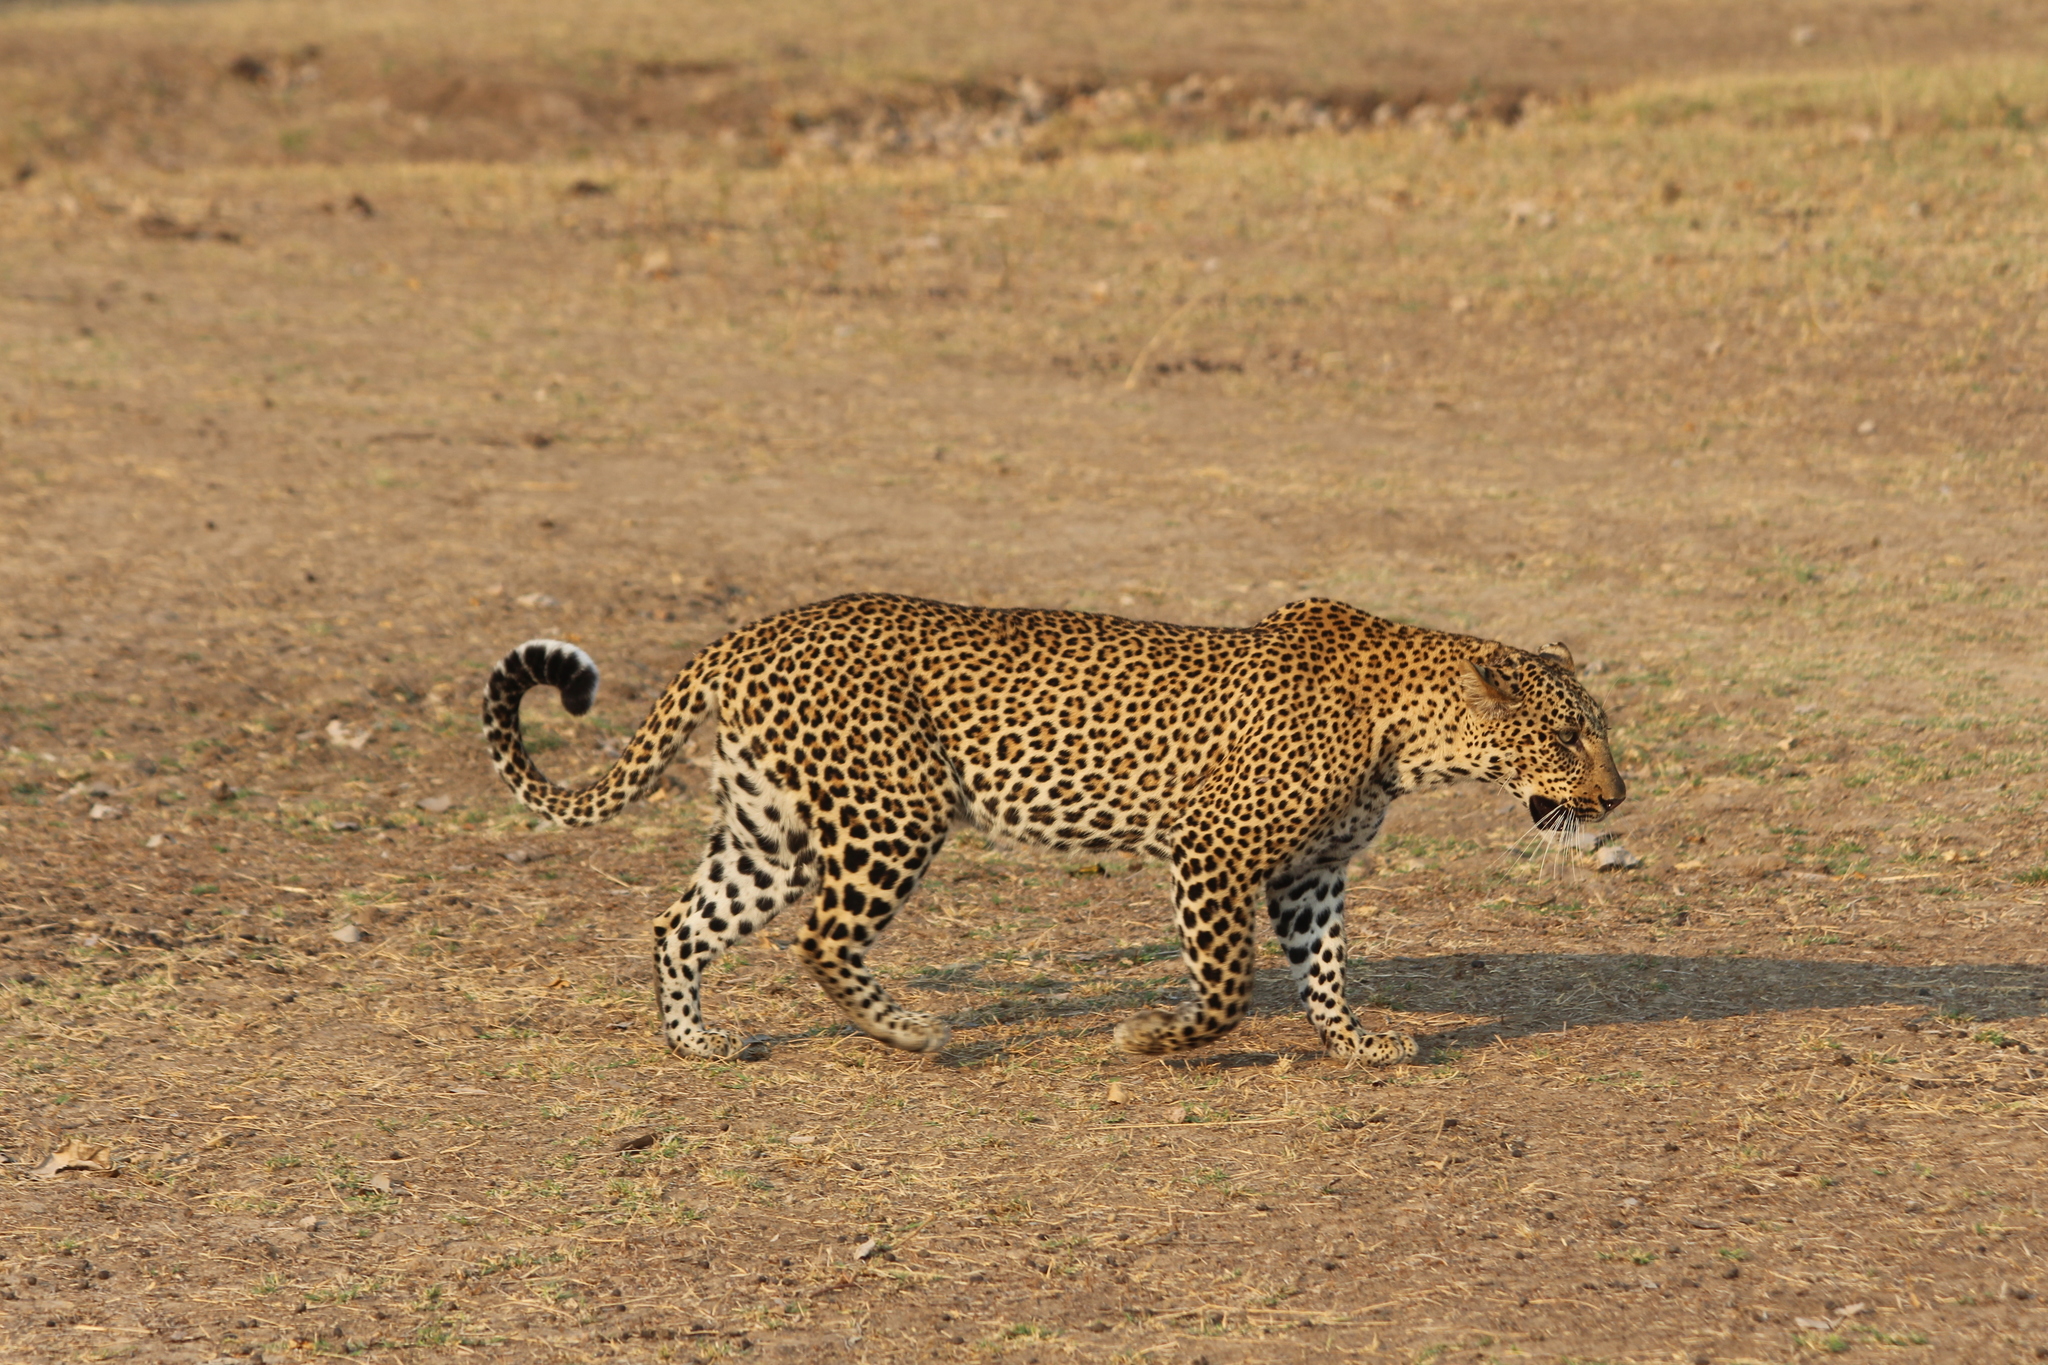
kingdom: Animalia
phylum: Chordata
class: Mammalia
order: Carnivora
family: Felidae
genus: Panthera
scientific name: Panthera pardus
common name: Leopard
